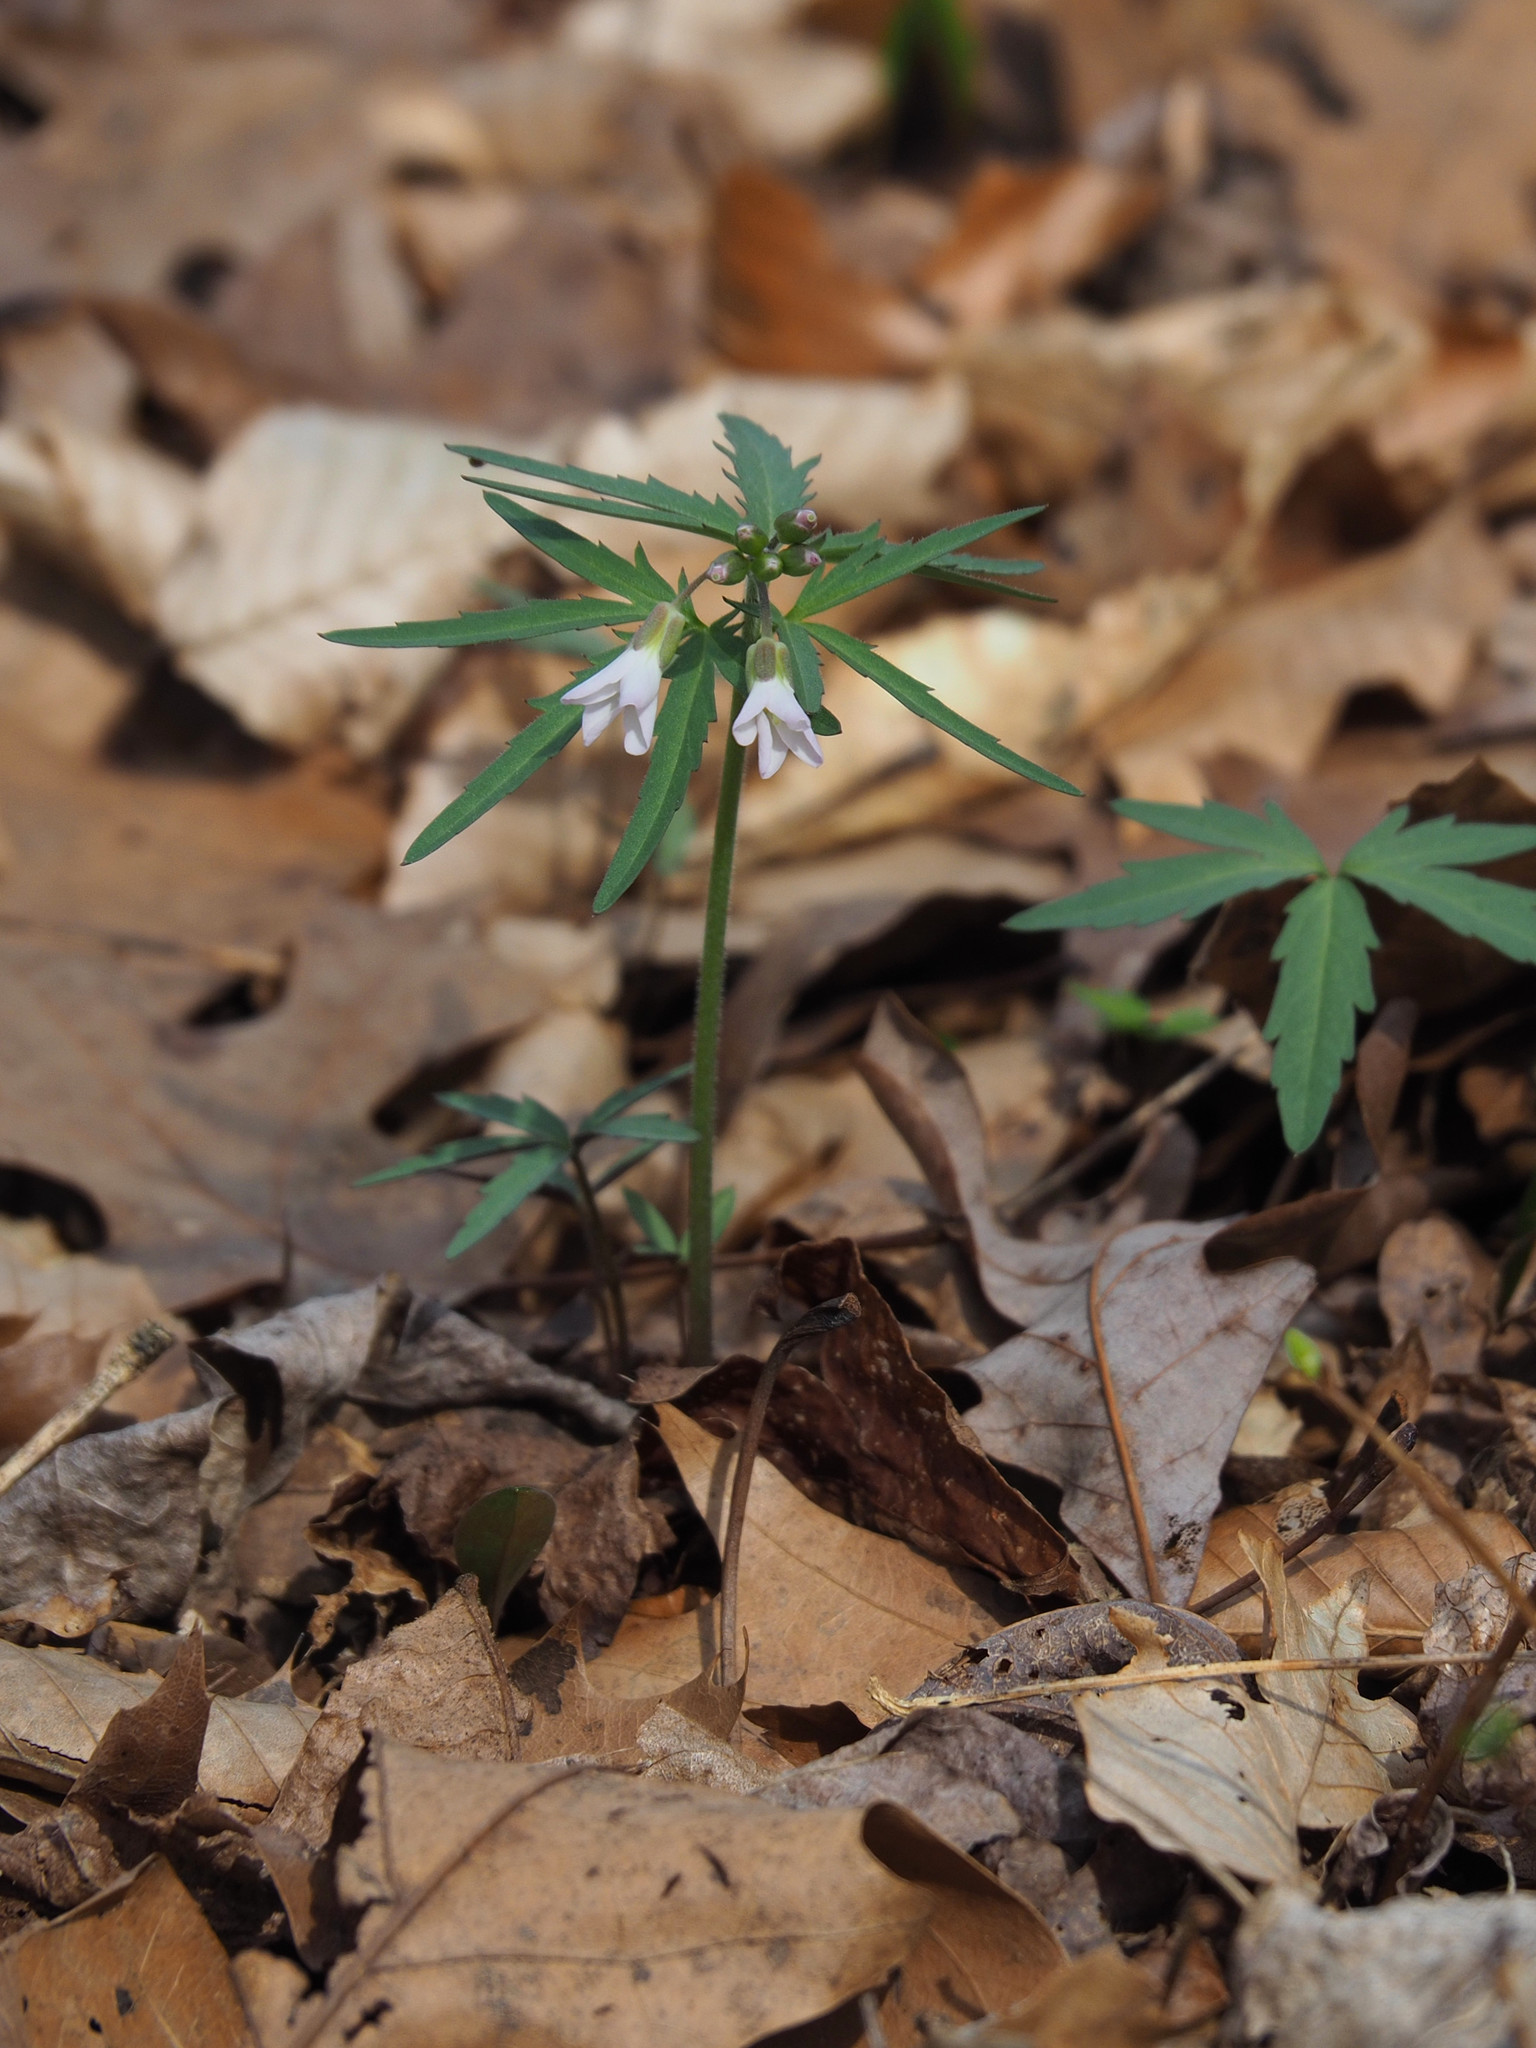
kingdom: Plantae
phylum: Tracheophyta
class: Magnoliopsida
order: Brassicales
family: Brassicaceae
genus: Cardamine
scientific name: Cardamine concatenata
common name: Cut-leaf toothcup
